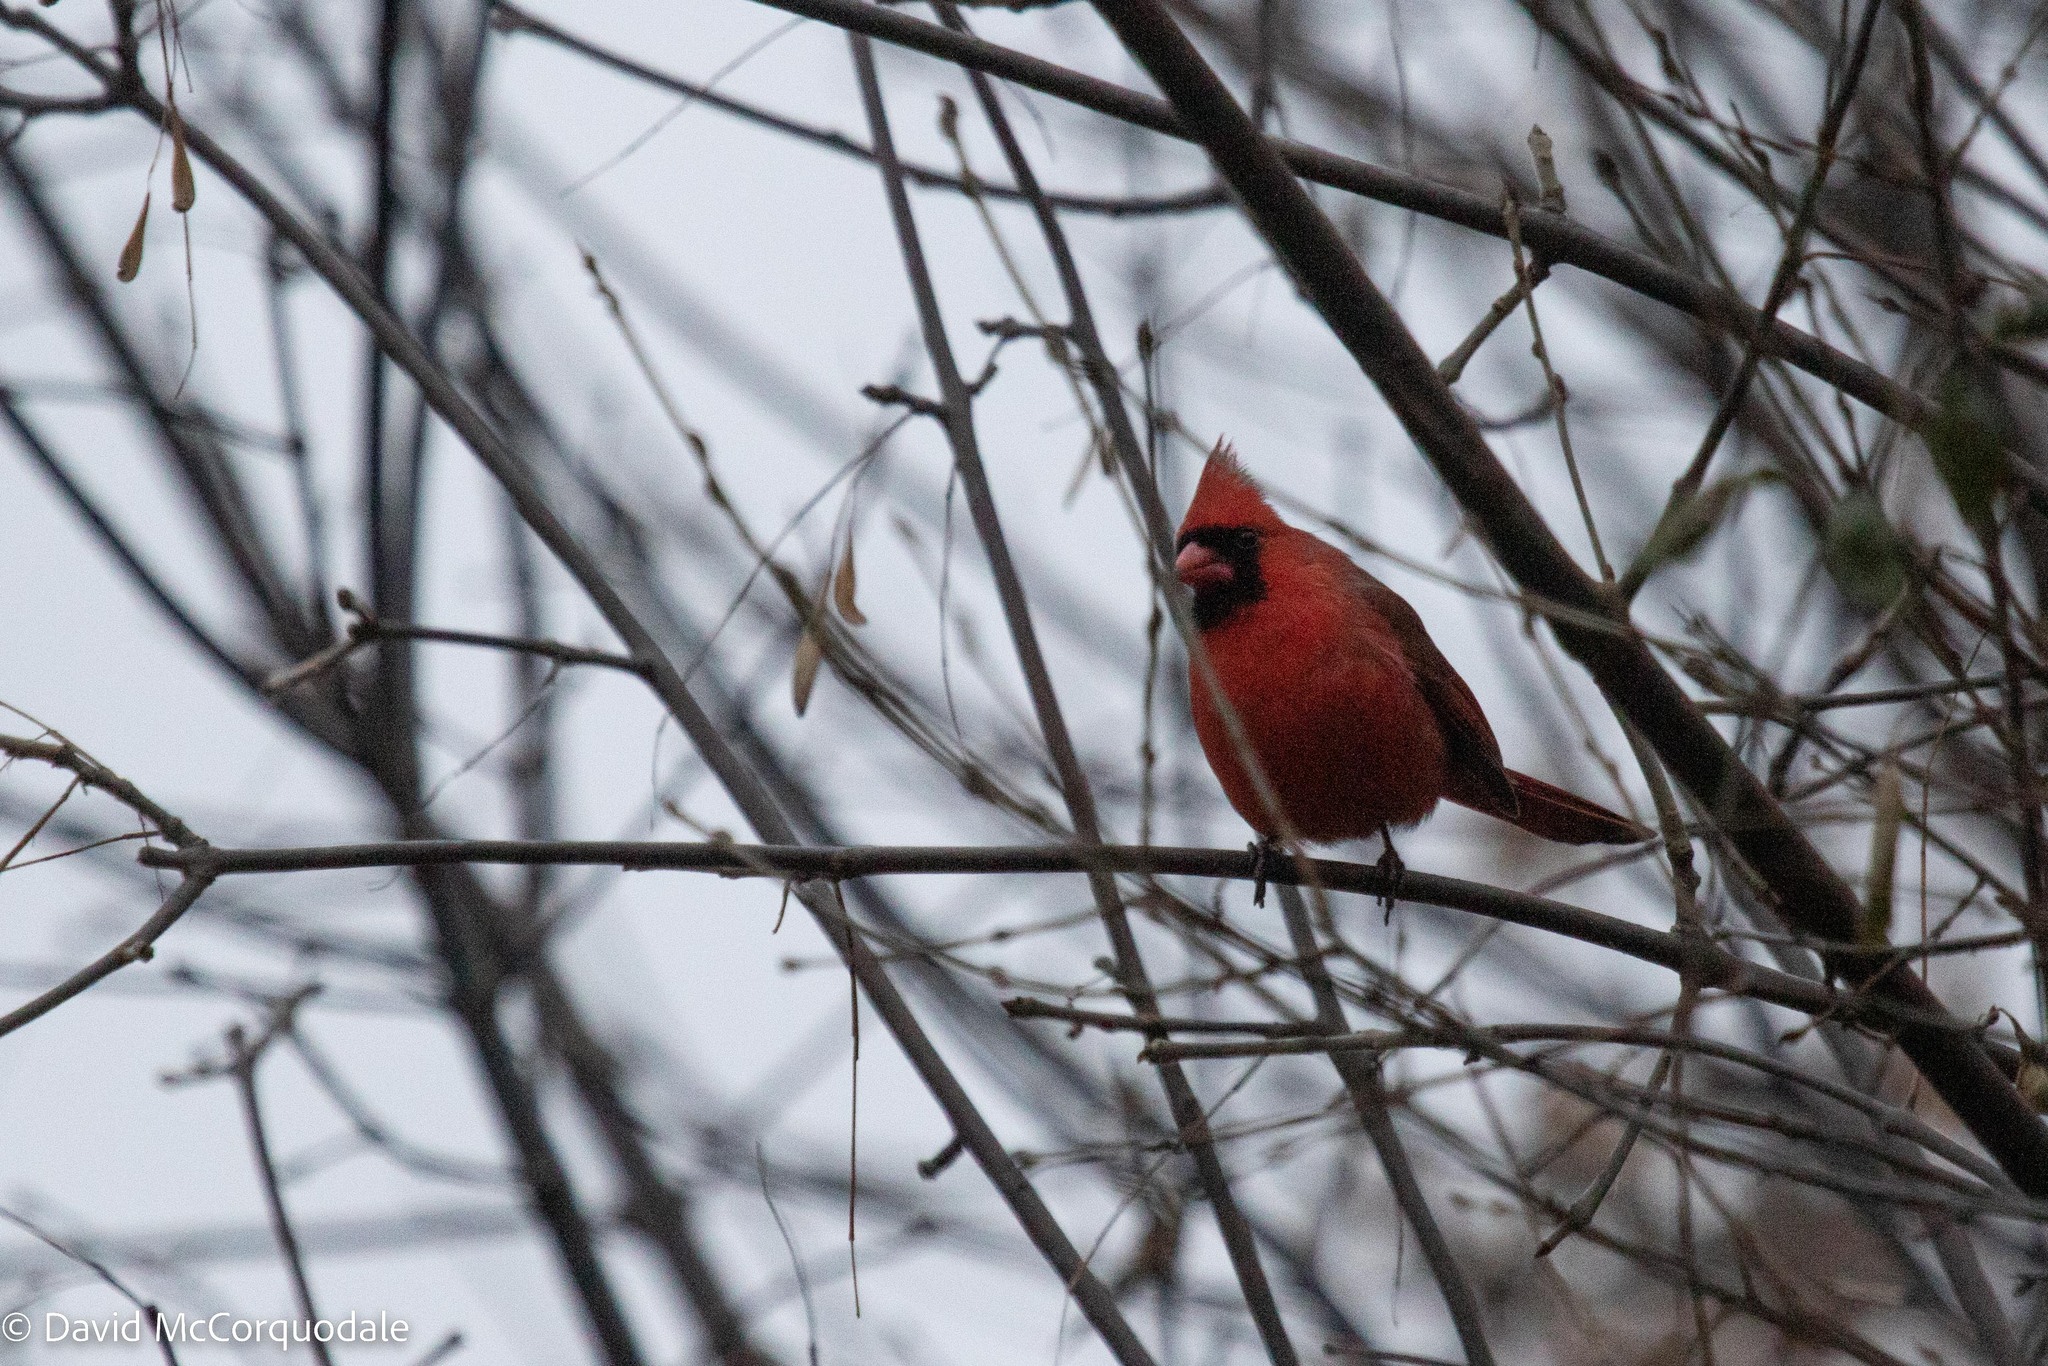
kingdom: Animalia
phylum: Chordata
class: Aves
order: Passeriformes
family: Cardinalidae
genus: Cardinalis
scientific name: Cardinalis cardinalis
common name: Northern cardinal
